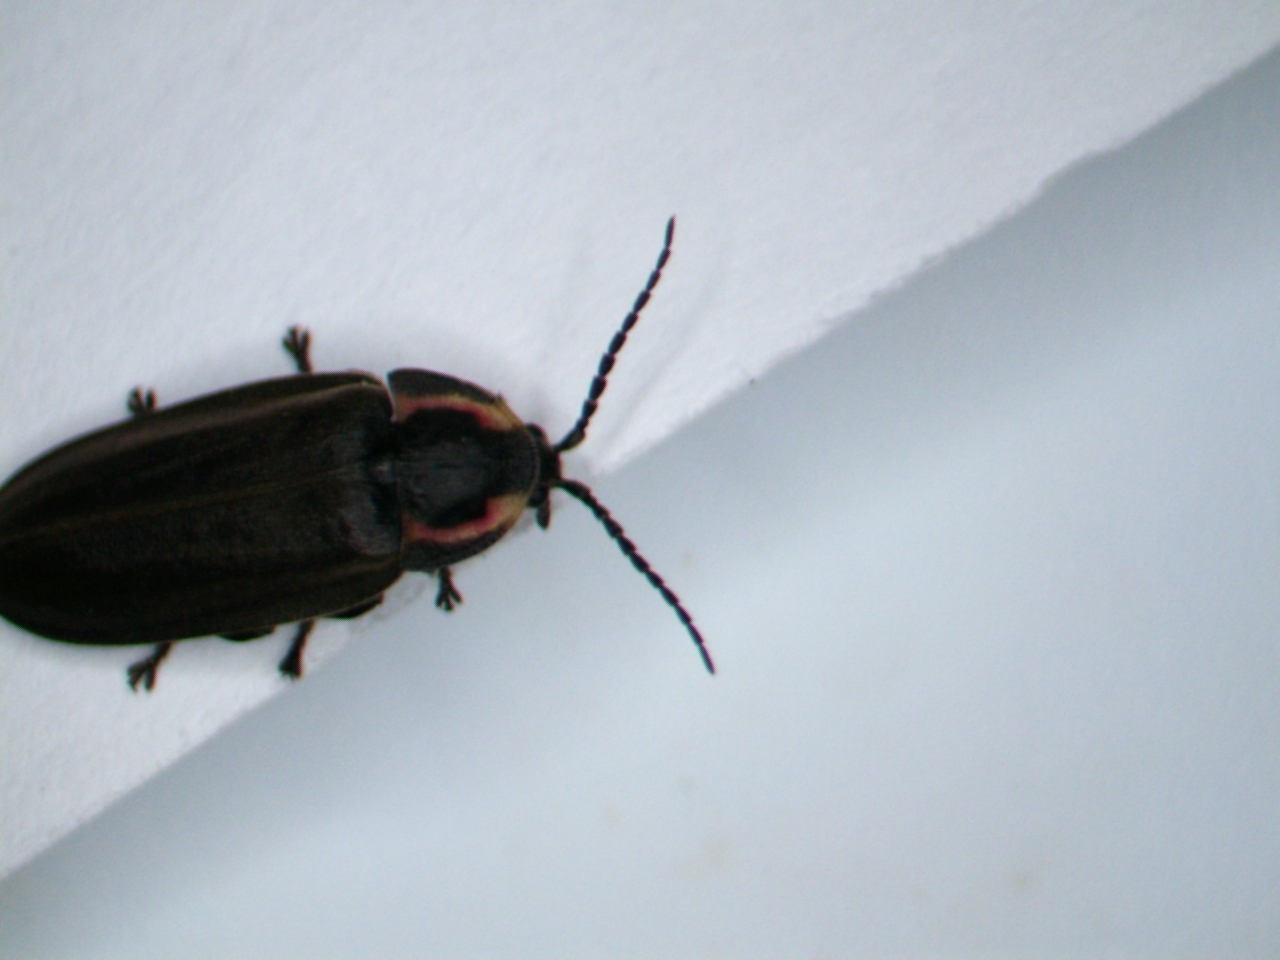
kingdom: Animalia
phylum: Arthropoda
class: Insecta
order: Coleoptera
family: Lampyridae
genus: Photinus
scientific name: Photinus corrusca
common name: Winter firefly
